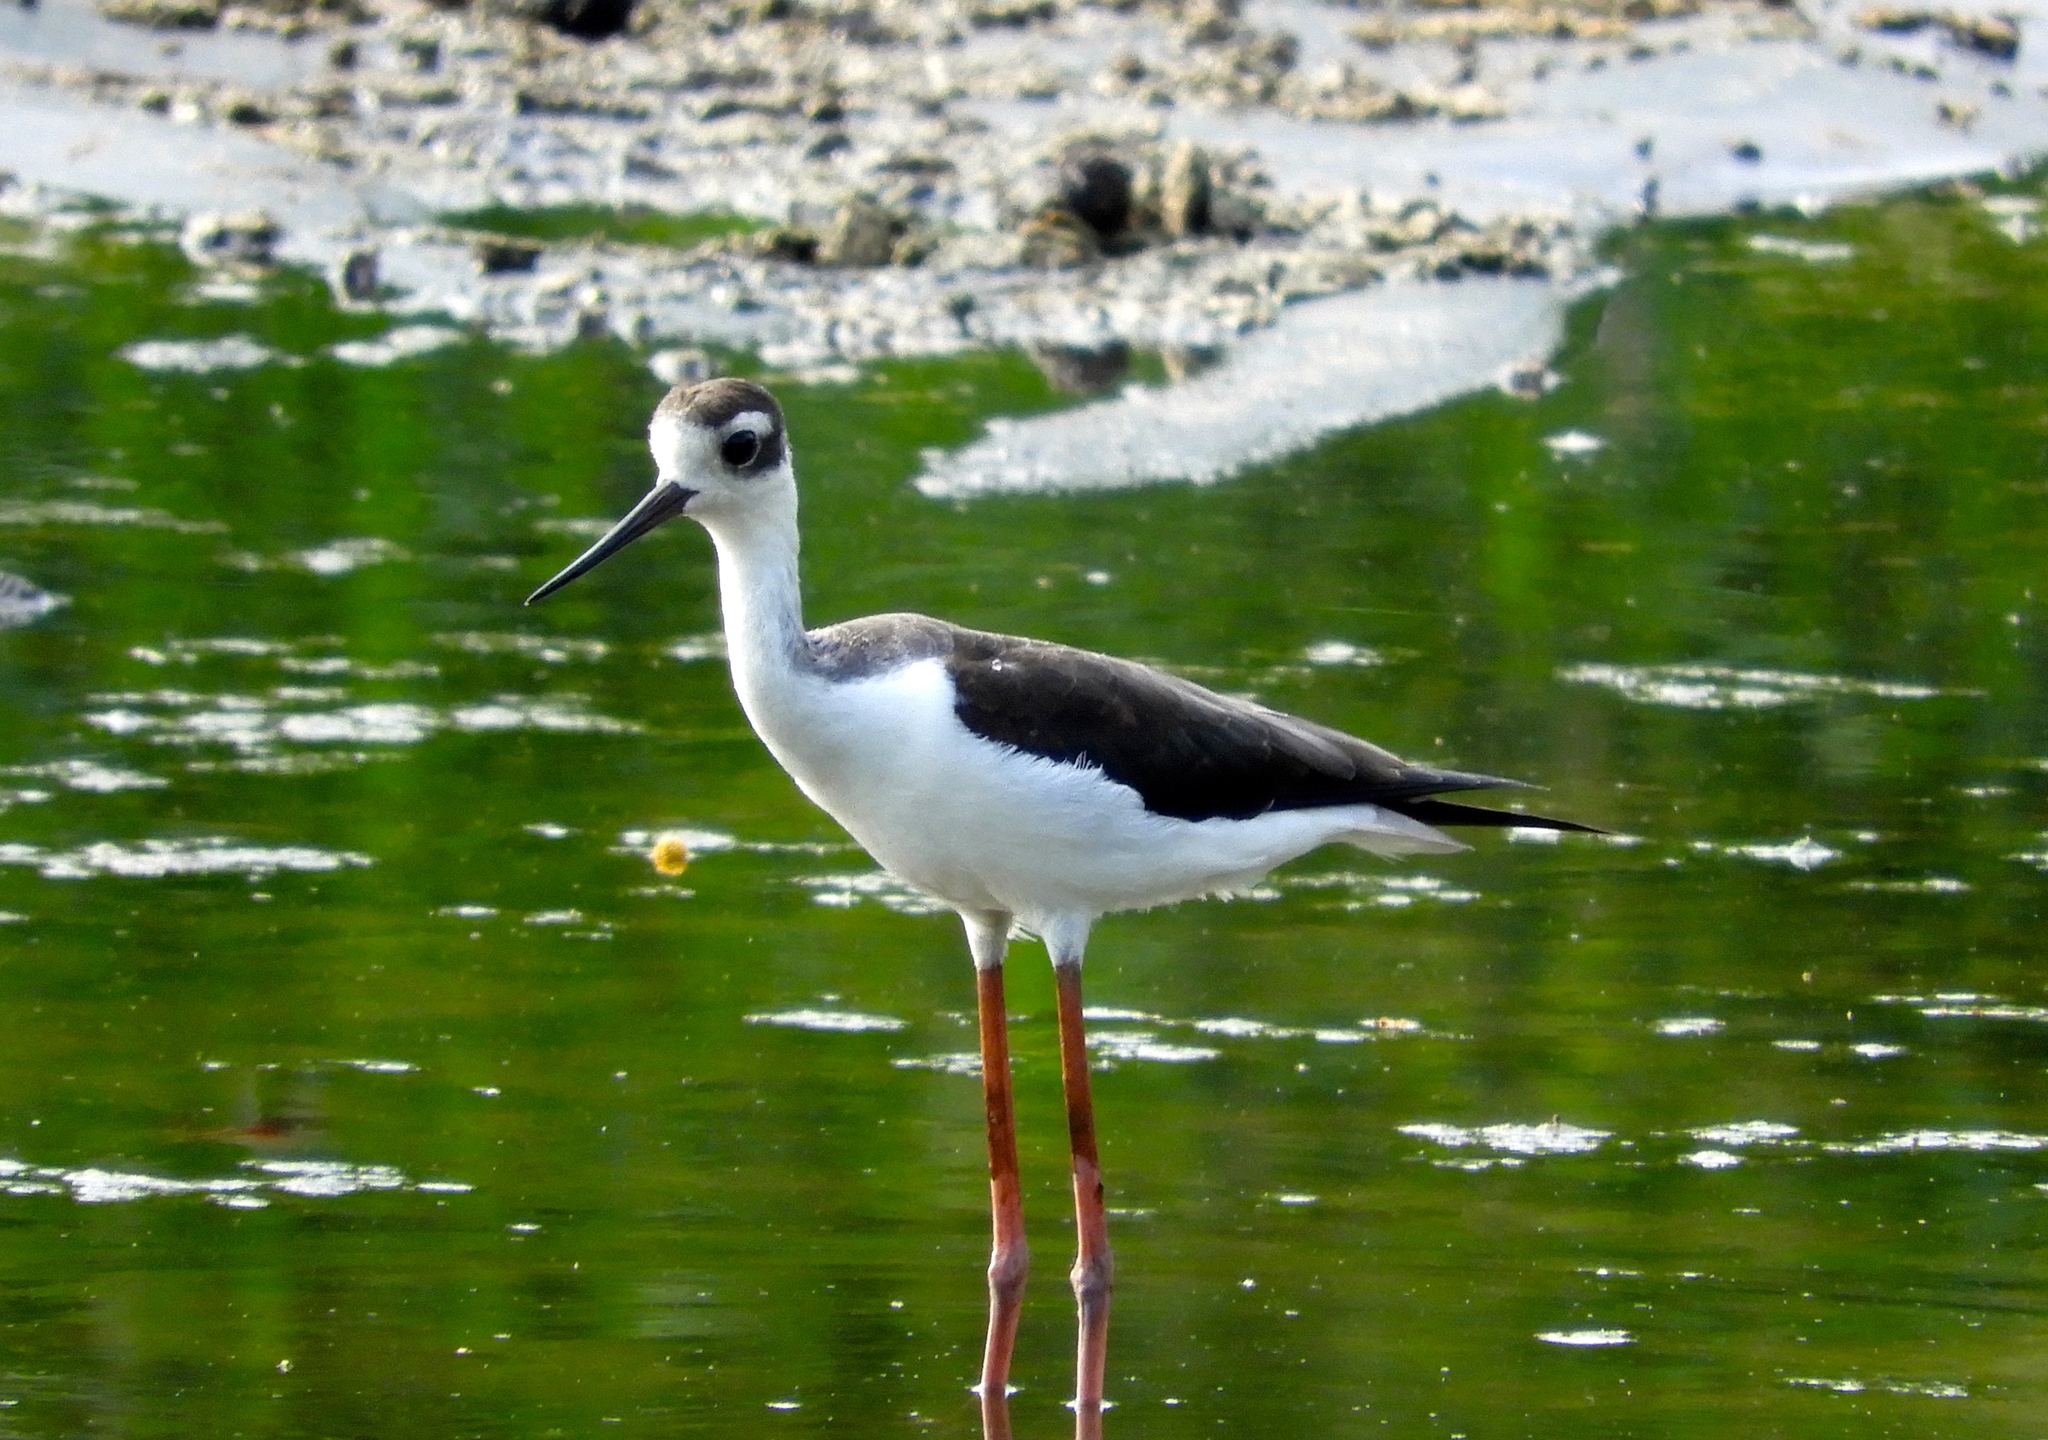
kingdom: Animalia
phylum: Chordata
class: Aves
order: Charadriiformes
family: Recurvirostridae
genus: Himantopus
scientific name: Himantopus mexicanus
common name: Black-necked stilt
